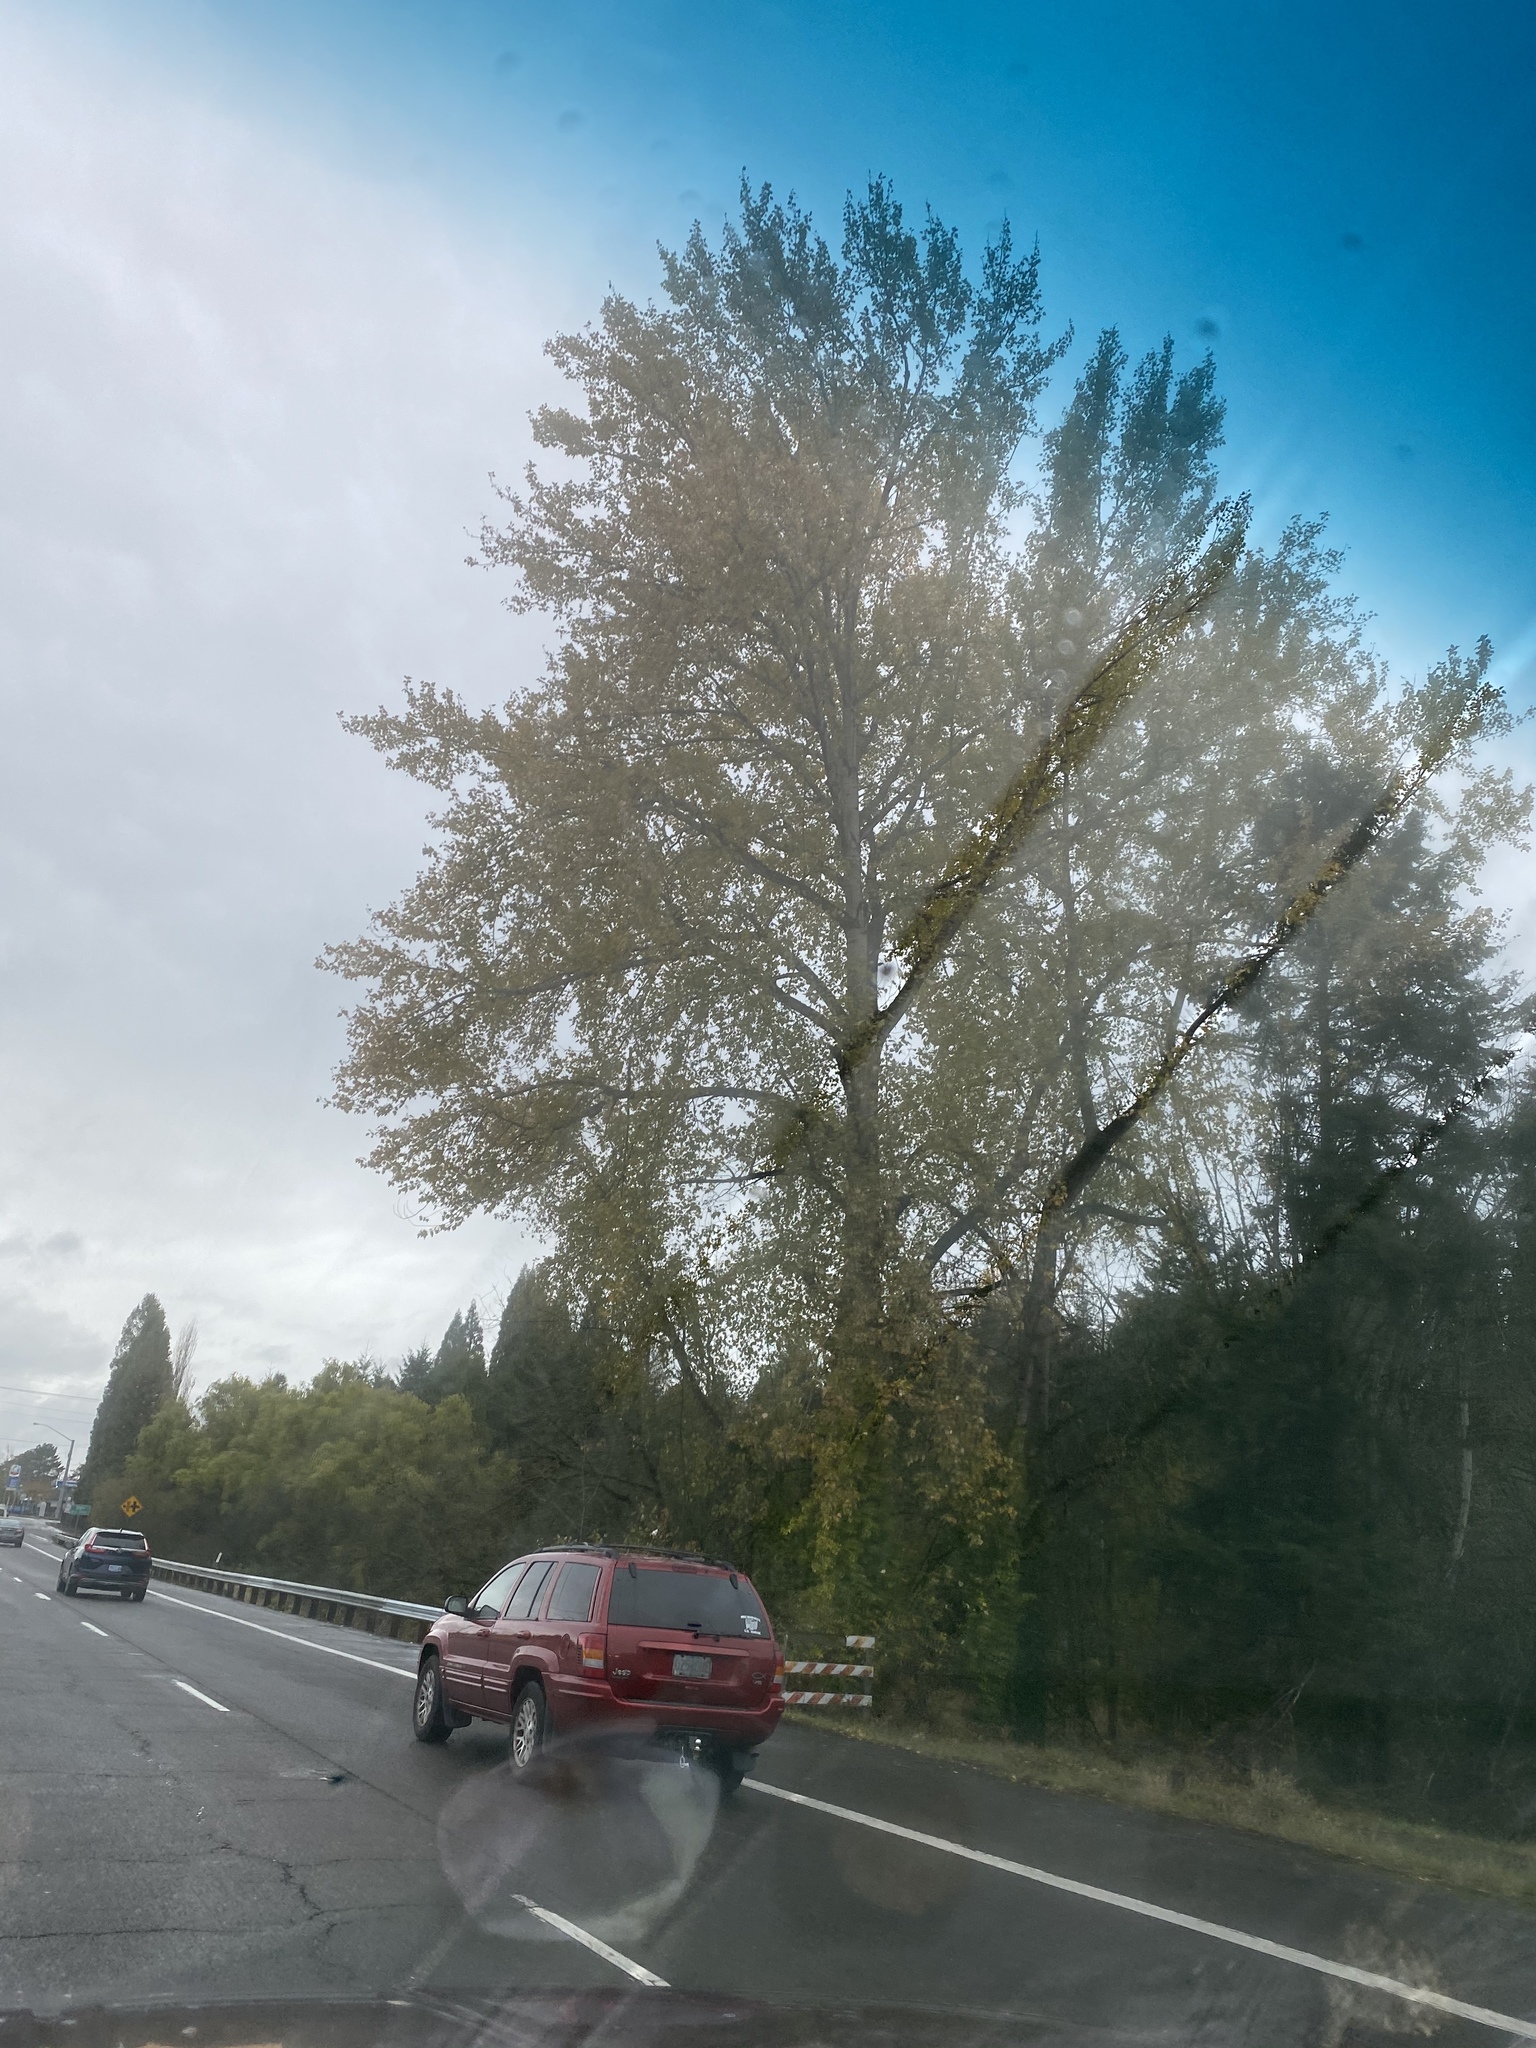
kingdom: Plantae
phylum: Tracheophyta
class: Magnoliopsida
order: Malpighiales
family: Salicaceae
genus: Populus
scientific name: Populus trichocarpa
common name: Black cottonwood
